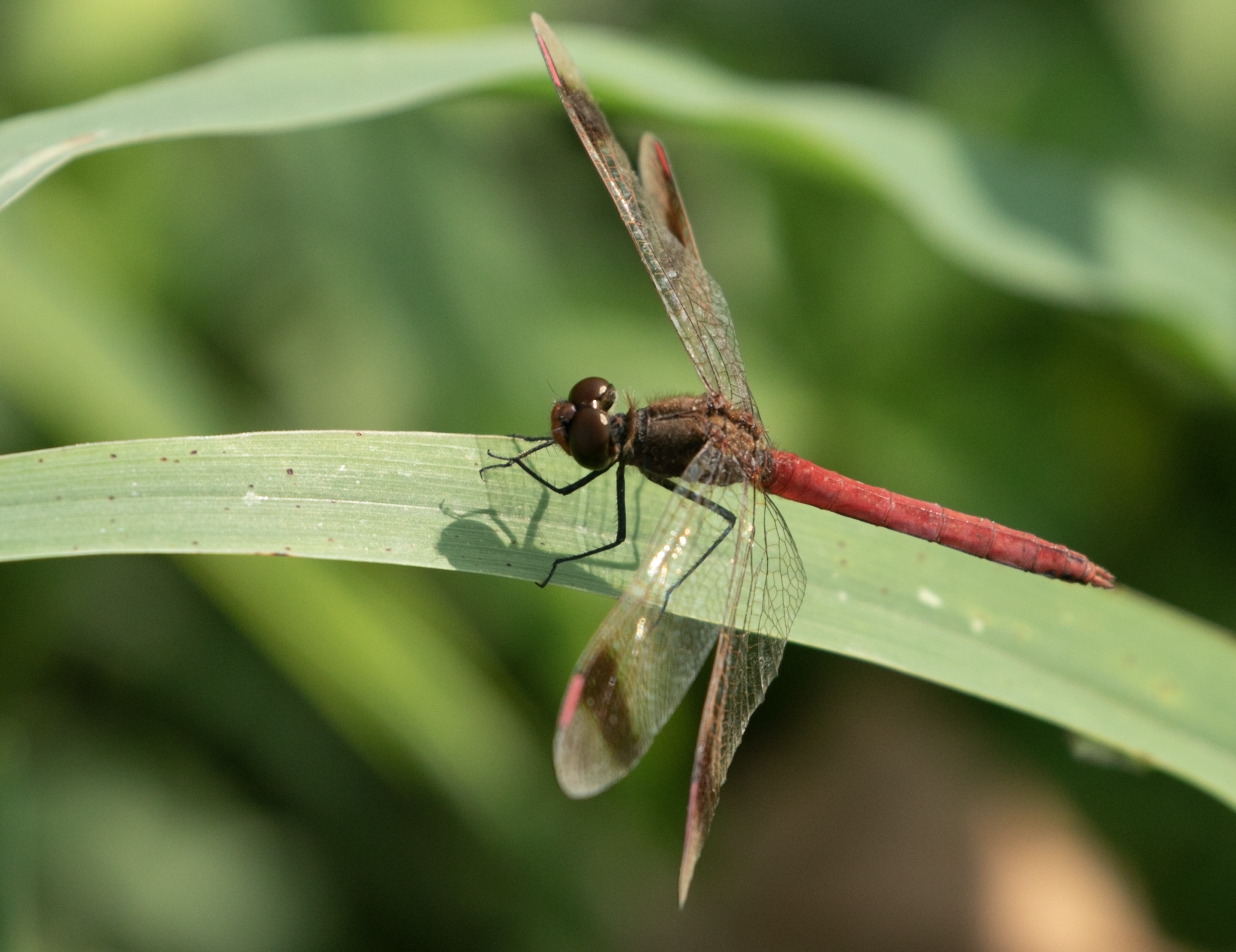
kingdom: Animalia
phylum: Arthropoda
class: Insecta
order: Odonata
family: Libellulidae
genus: Sympetrum
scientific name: Sympetrum pedemontanum
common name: Banded darter
